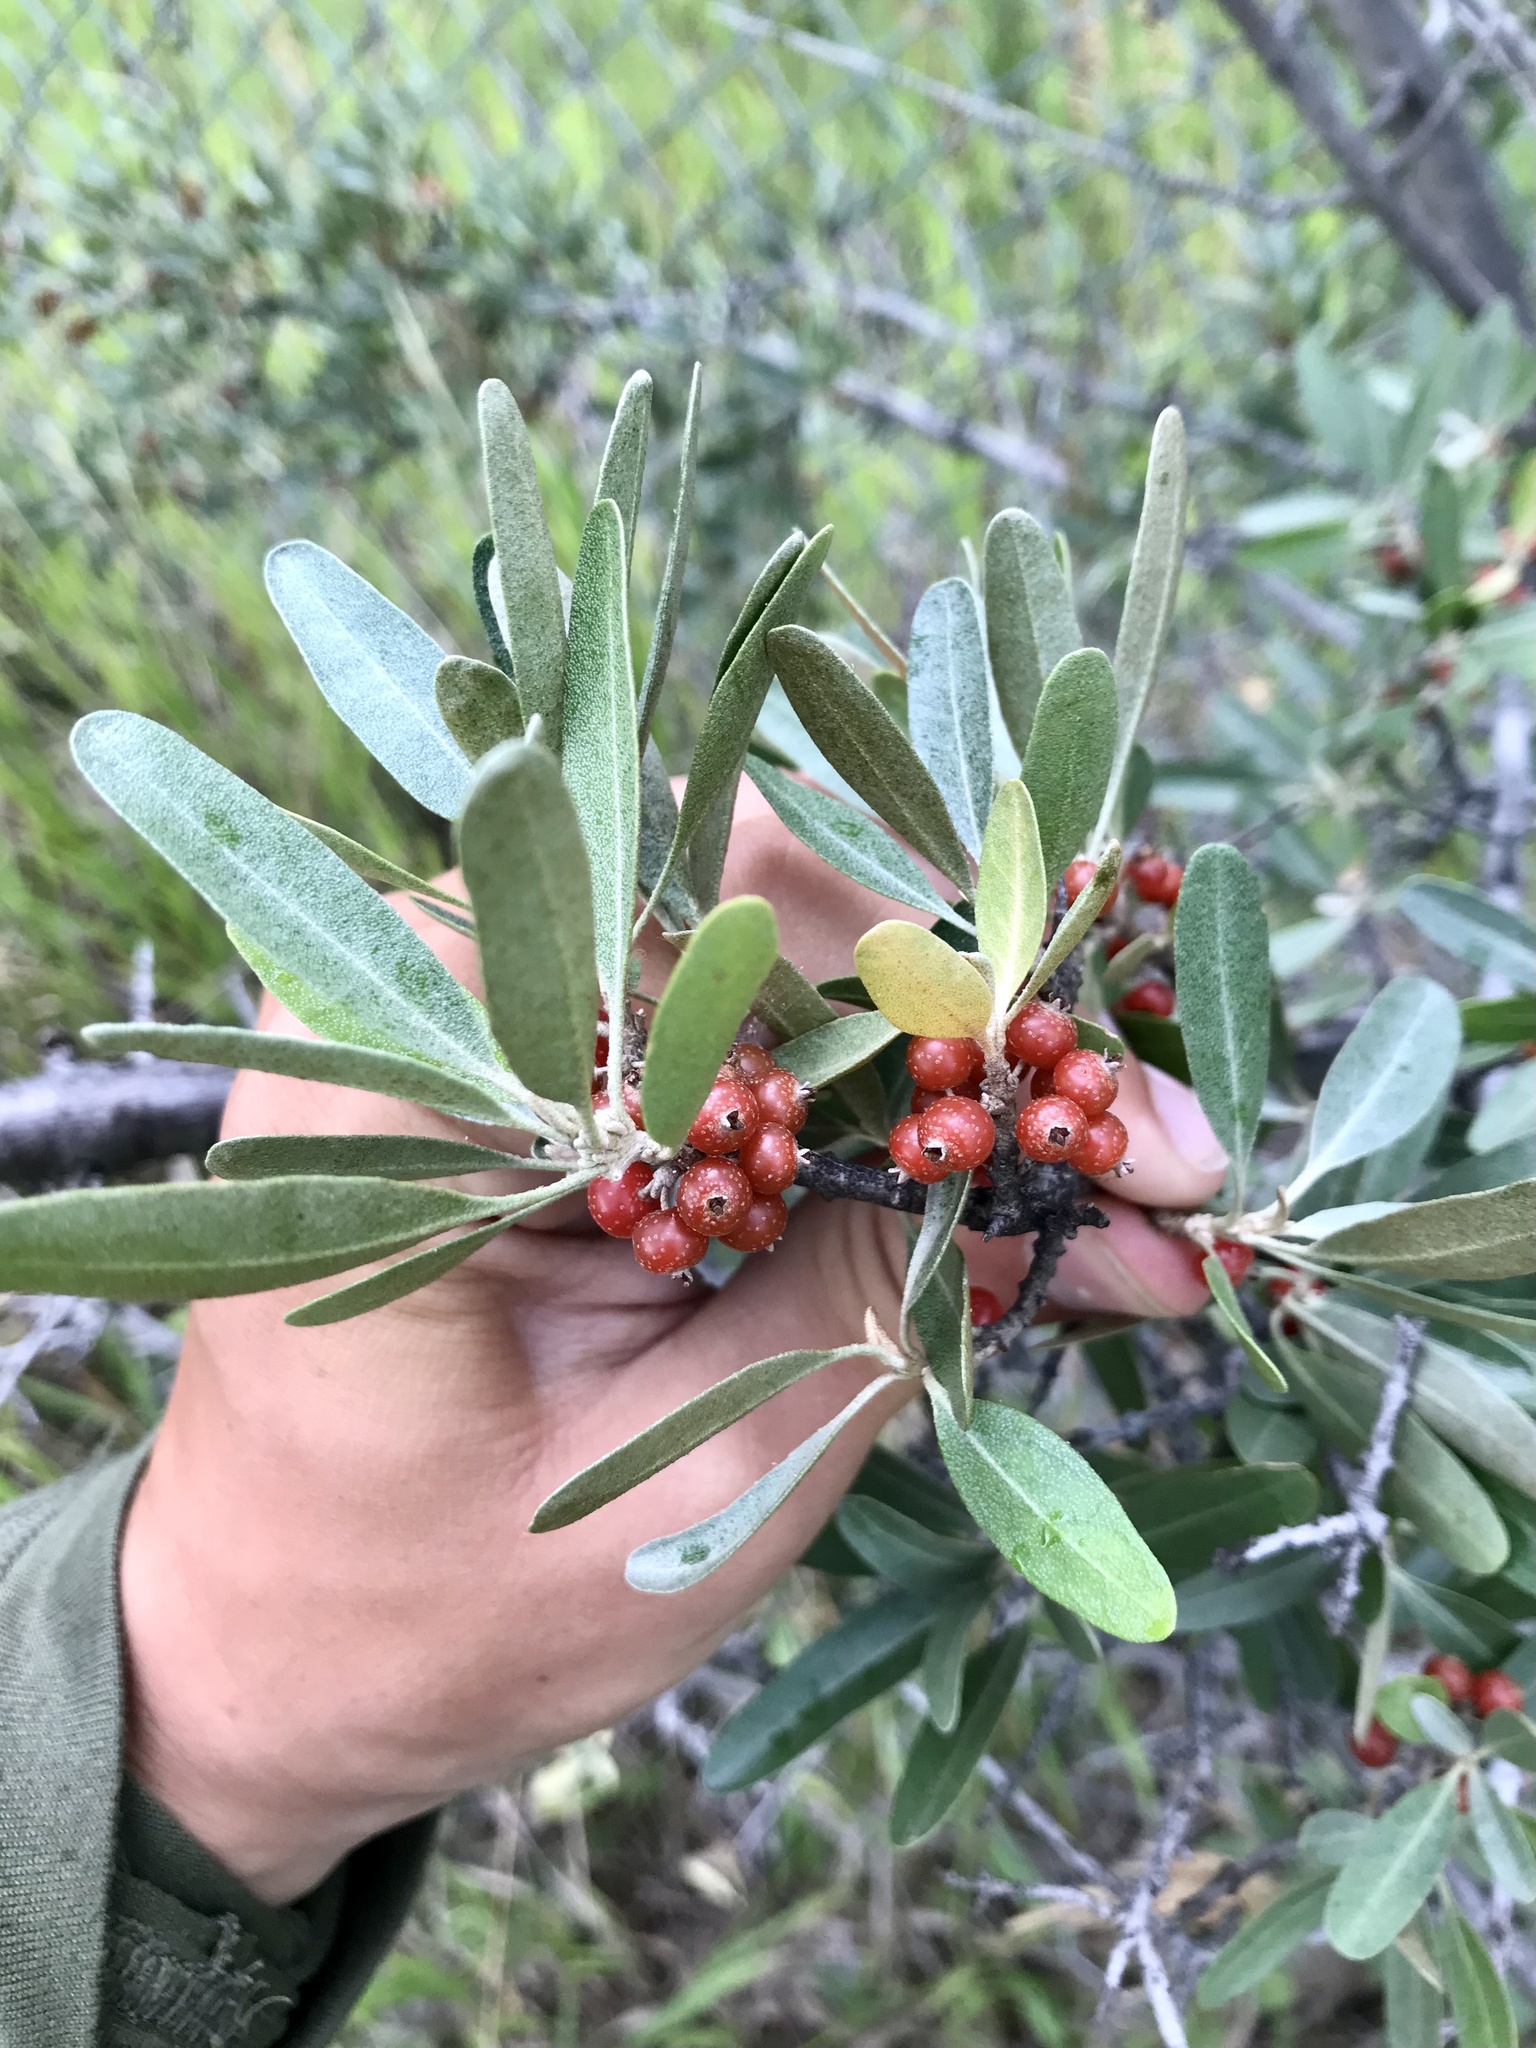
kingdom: Plantae
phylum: Tracheophyta
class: Magnoliopsida
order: Rosales
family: Elaeagnaceae
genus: Shepherdia
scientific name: Shepherdia argentea
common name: Silver buffaloberry
